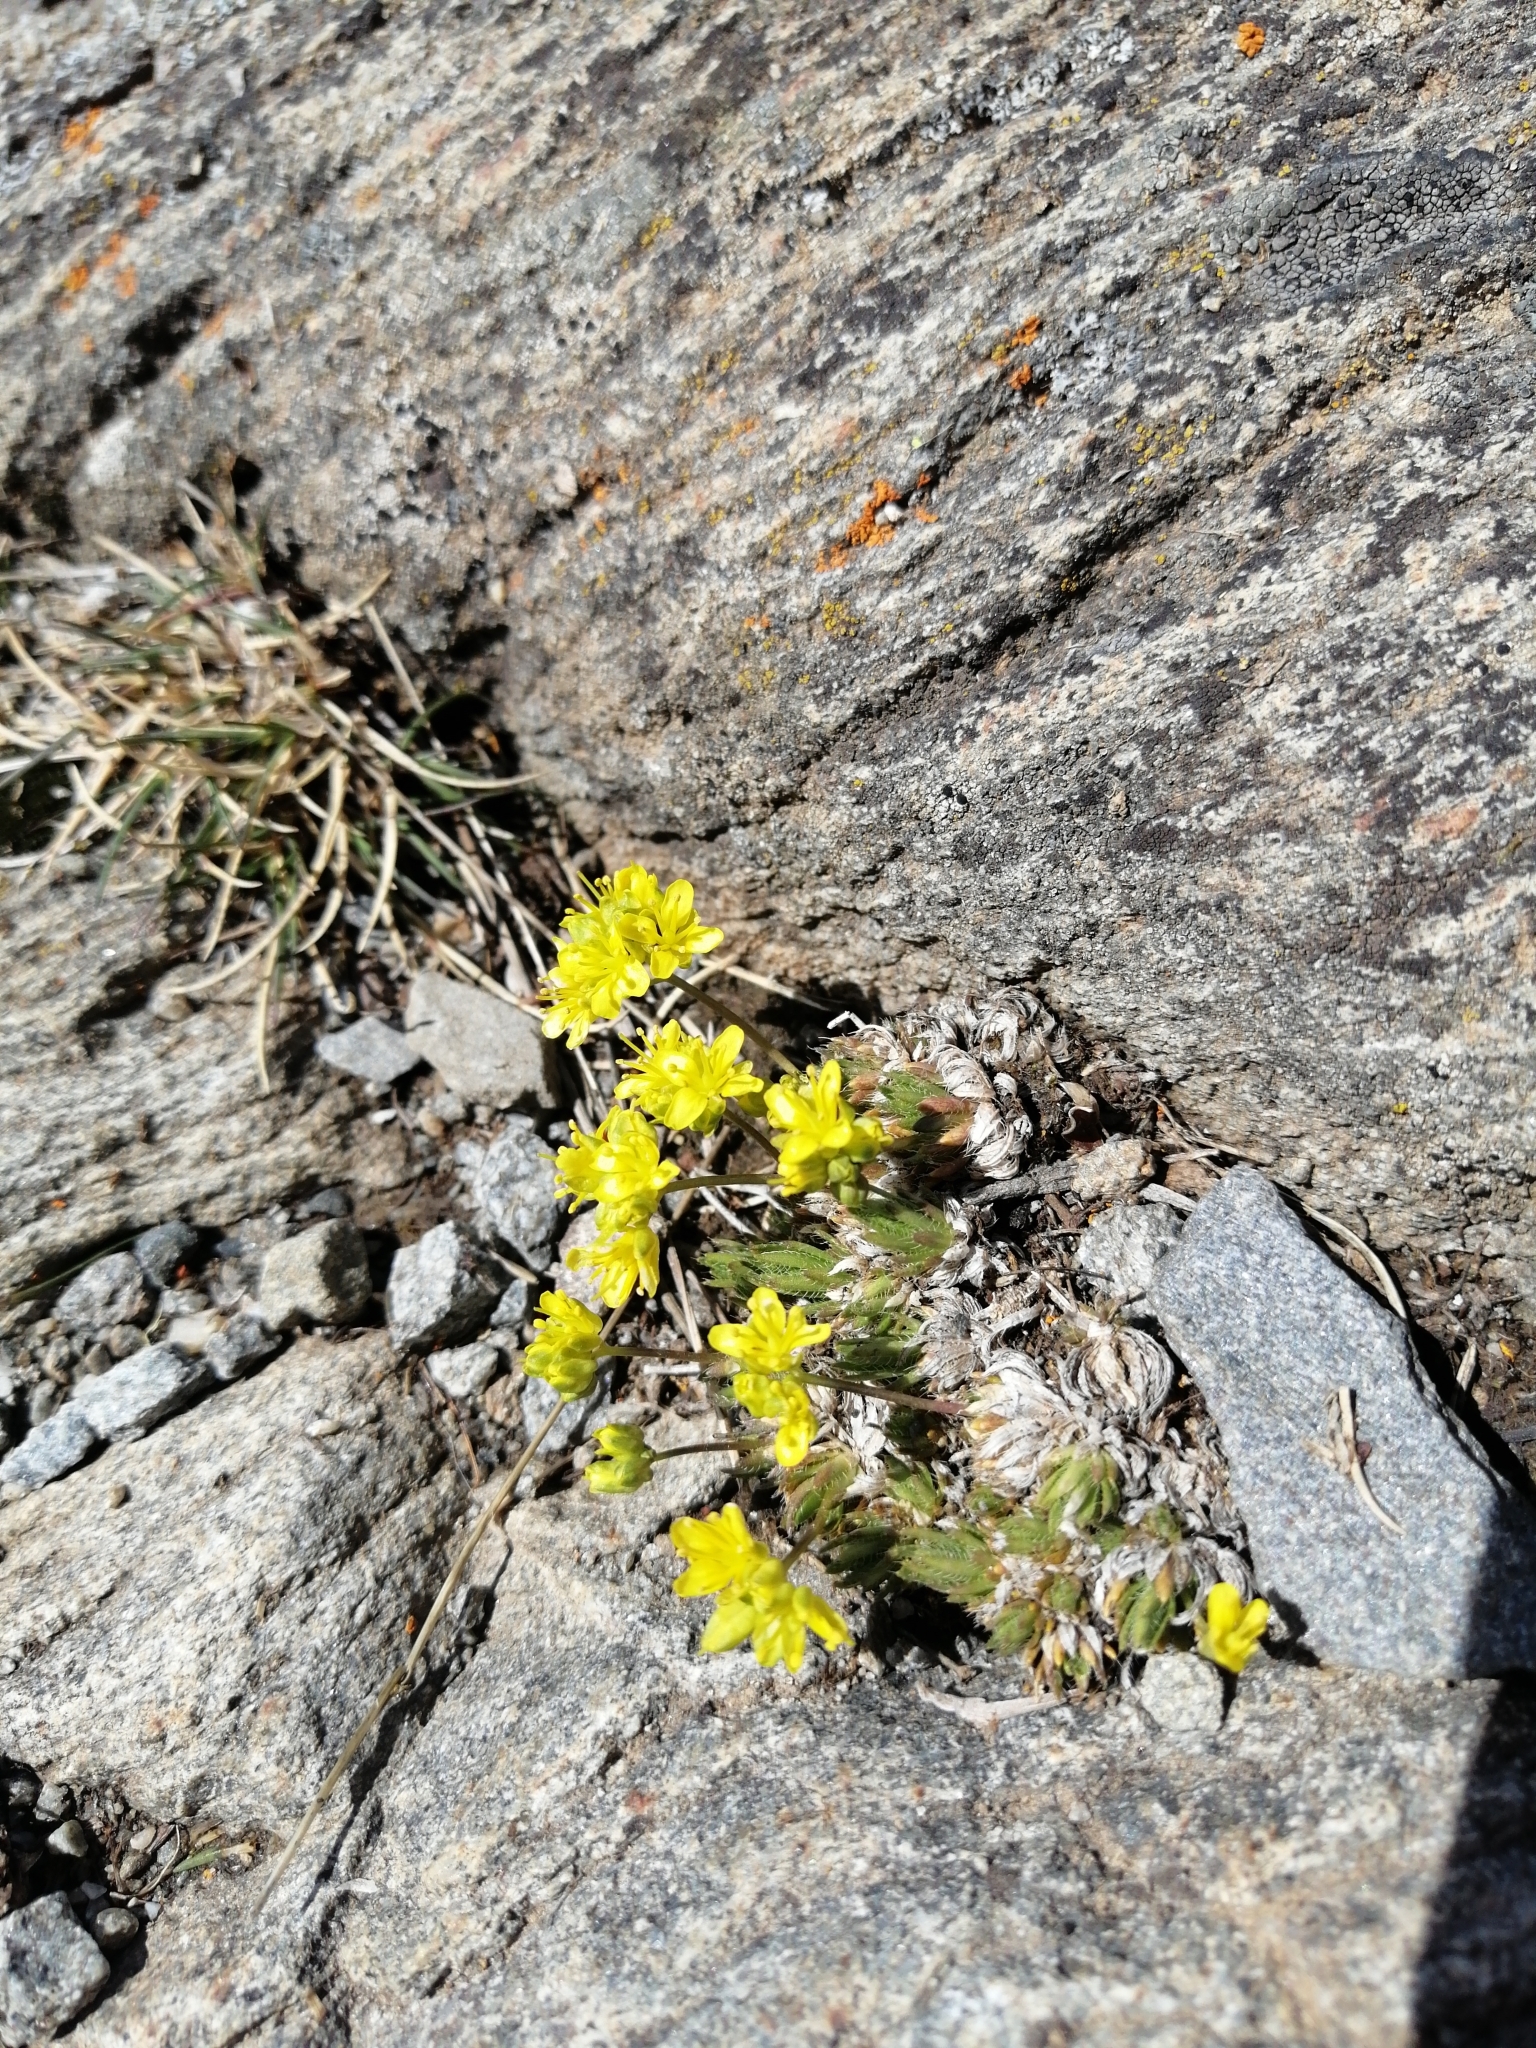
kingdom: Plantae
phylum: Tracheophyta
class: Magnoliopsida
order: Brassicales
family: Brassicaceae
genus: Draba
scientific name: Draba aizoides
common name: Yellow whitlowgrass
